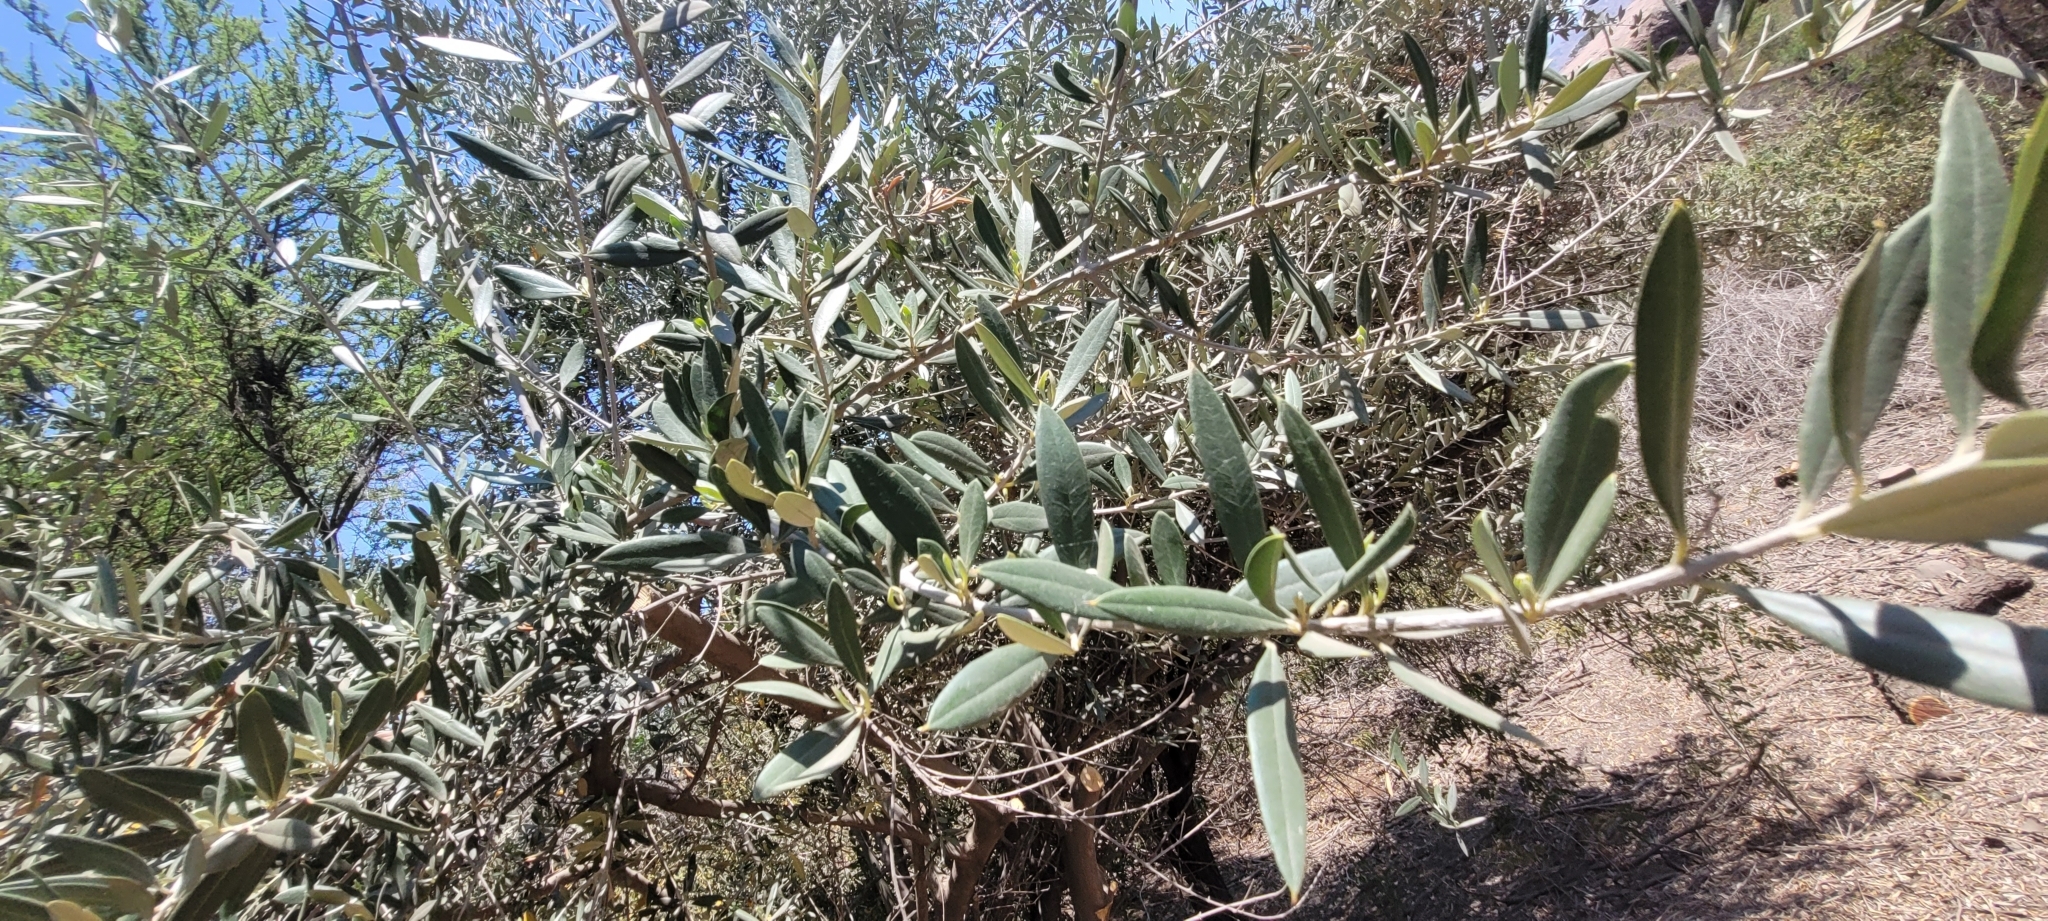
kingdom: Plantae
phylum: Tracheophyta
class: Magnoliopsida
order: Lamiales
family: Oleaceae
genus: Olea
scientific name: Olea europaea
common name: Olive
